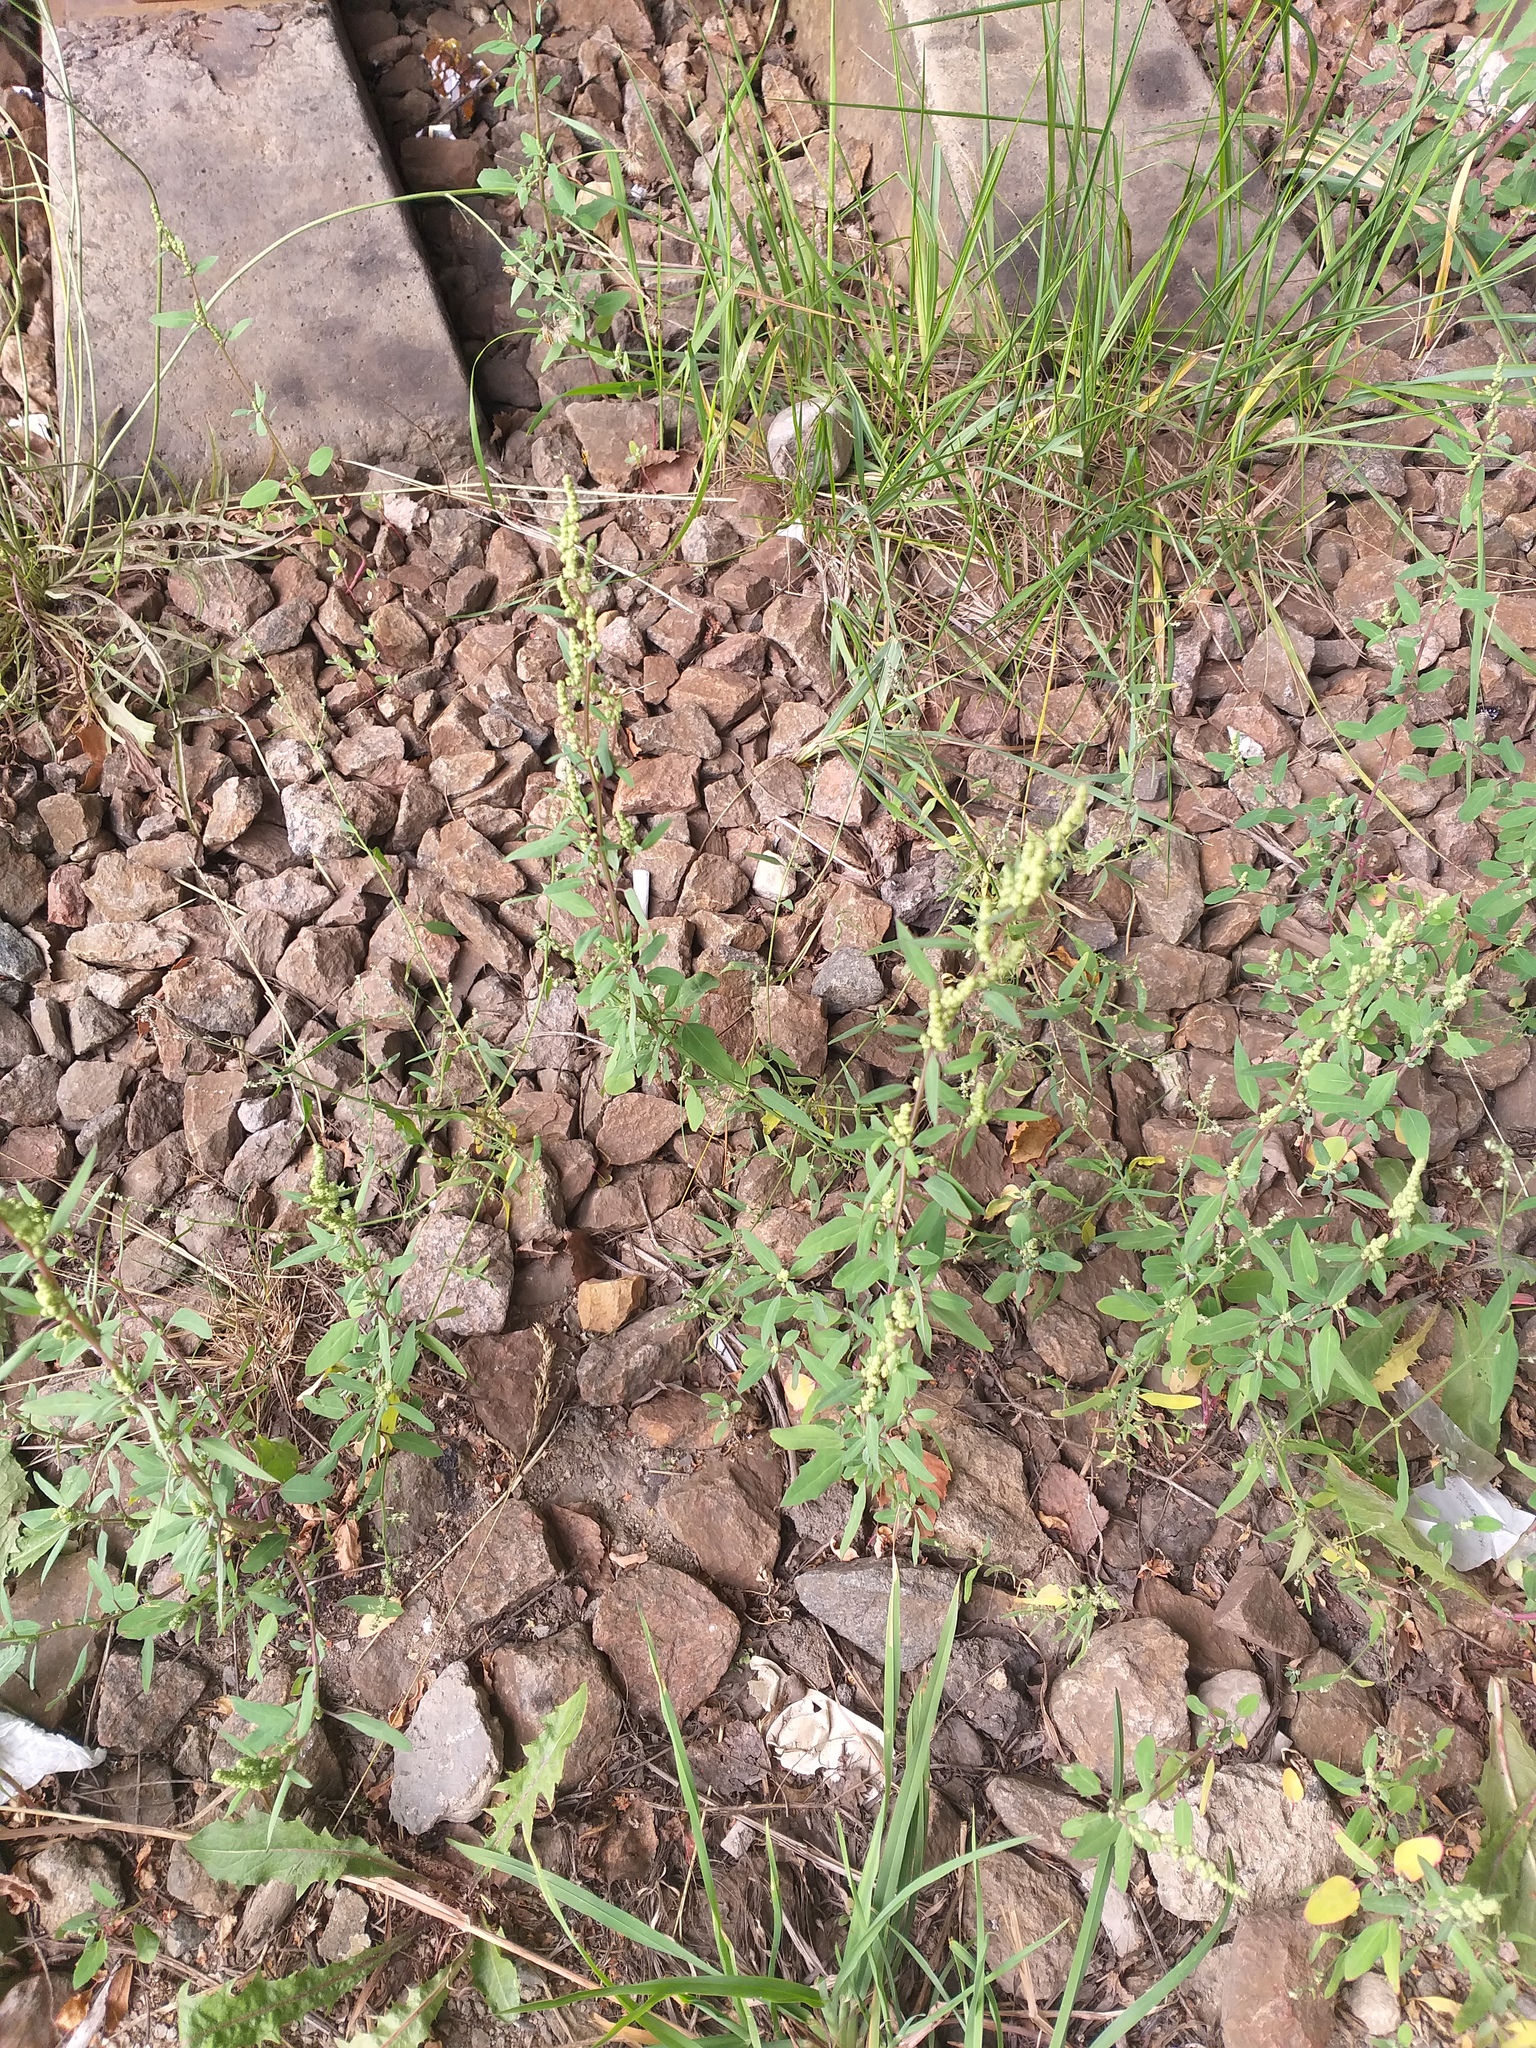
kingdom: Plantae
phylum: Tracheophyta
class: Magnoliopsida
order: Caryophyllales
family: Amaranthaceae
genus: Chenopodium
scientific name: Chenopodium betaceum
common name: Striped goosefoot
